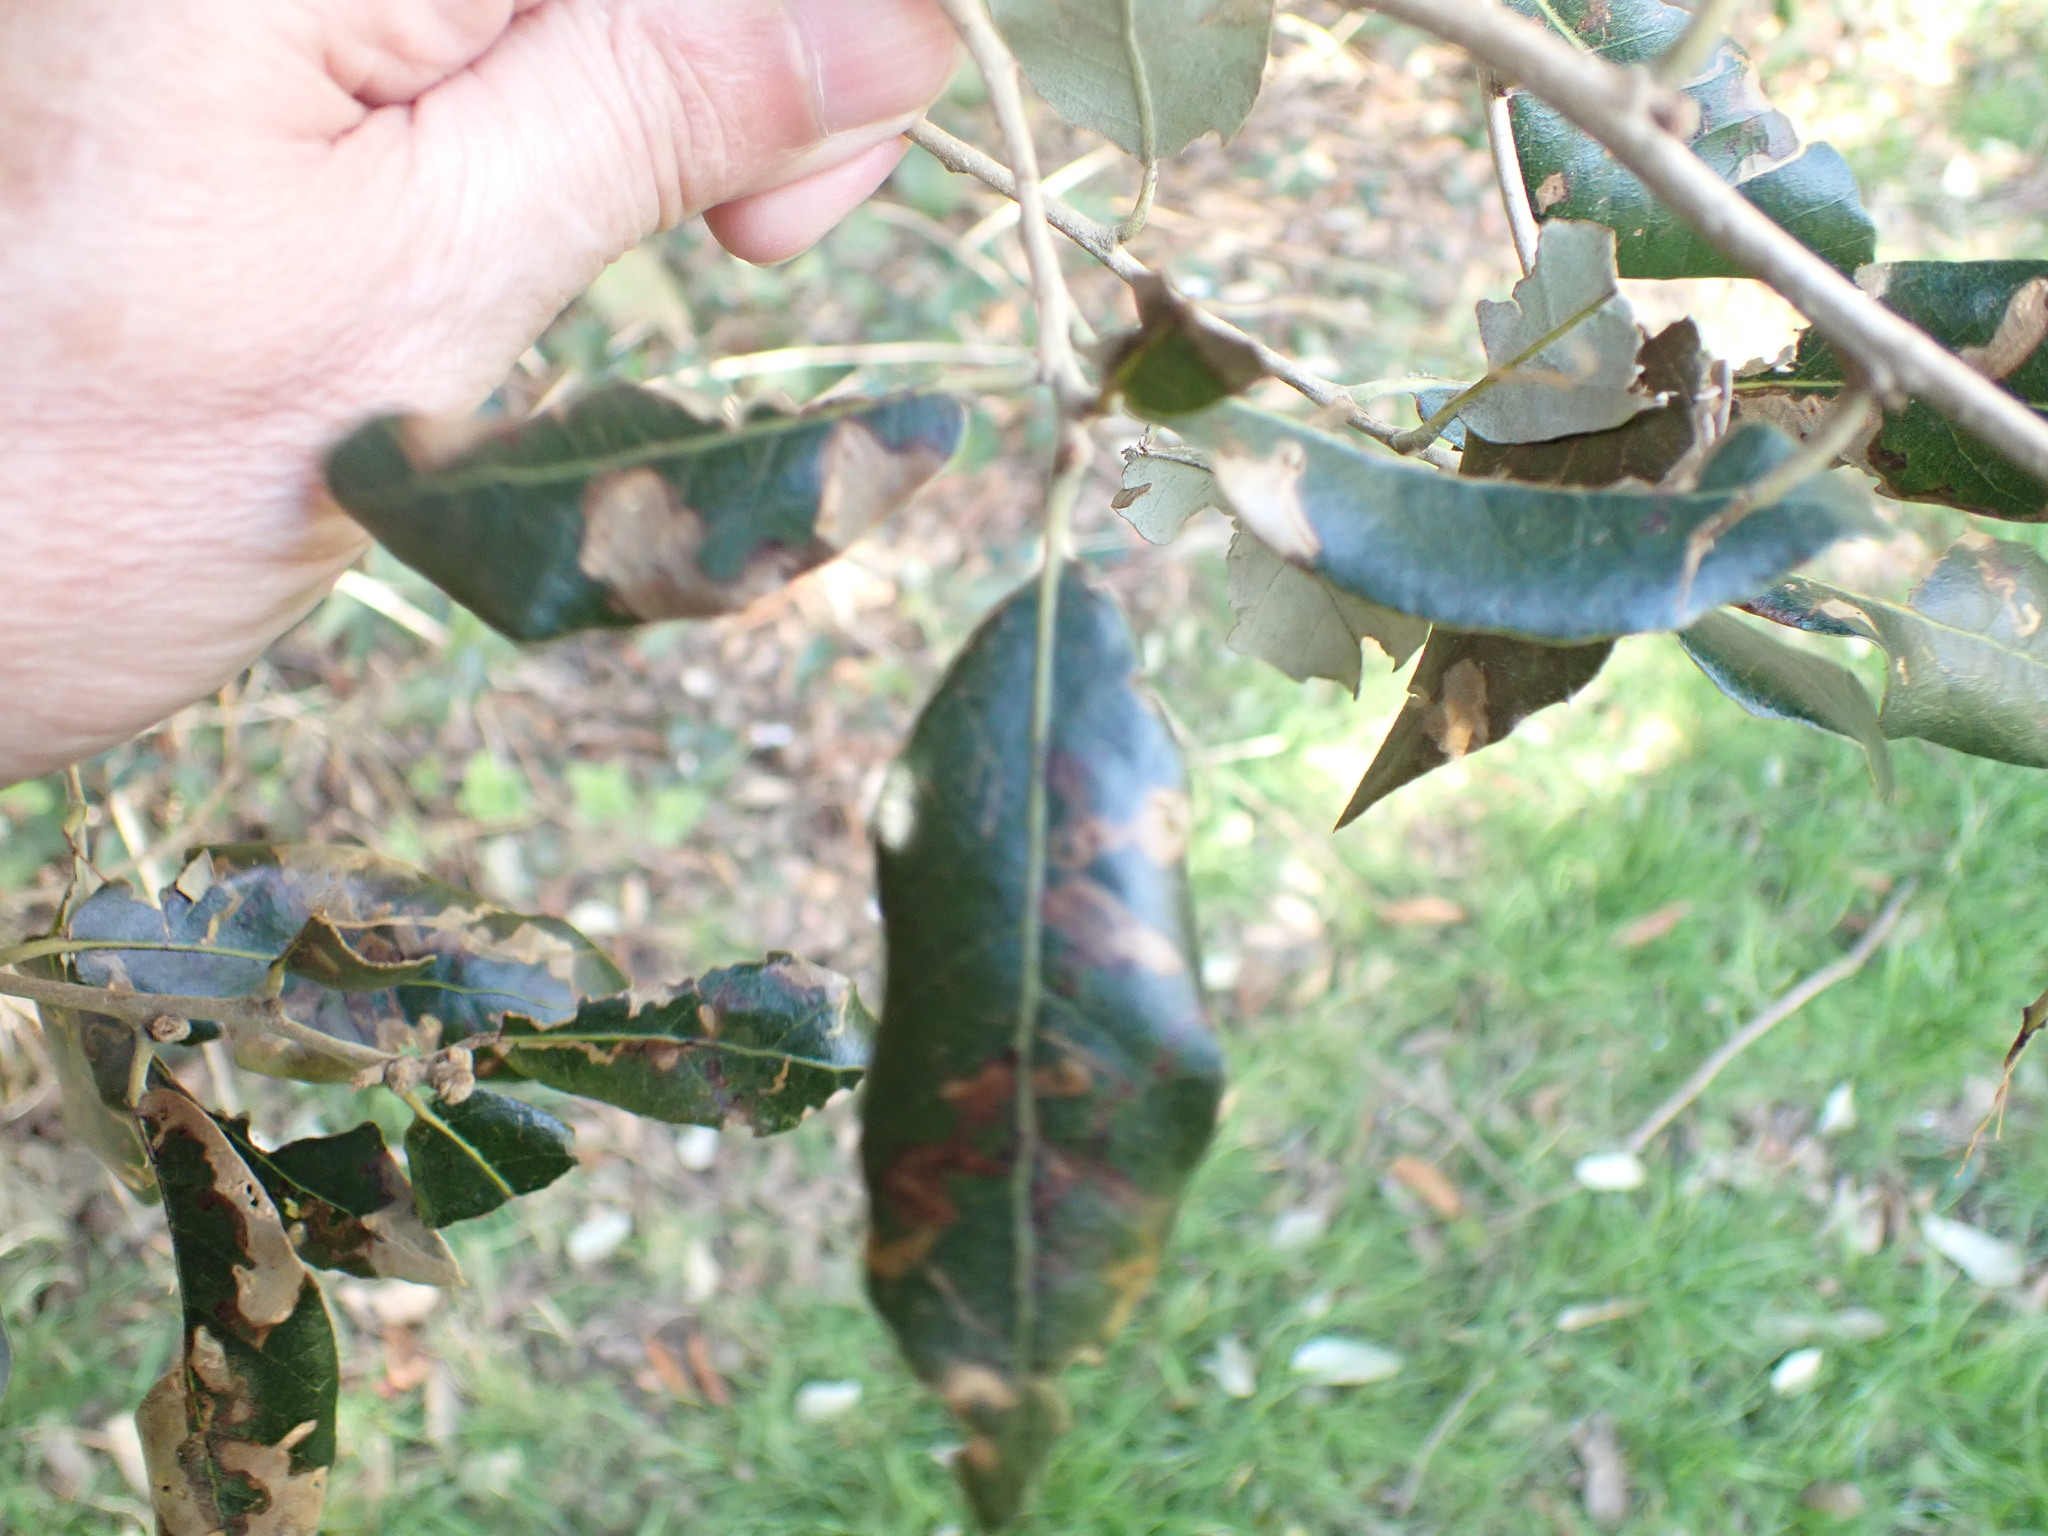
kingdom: Plantae
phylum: Tracheophyta
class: Magnoliopsida
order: Fagales
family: Fagaceae
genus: Quercus
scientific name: Quercus ilex
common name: Evergreen oak
